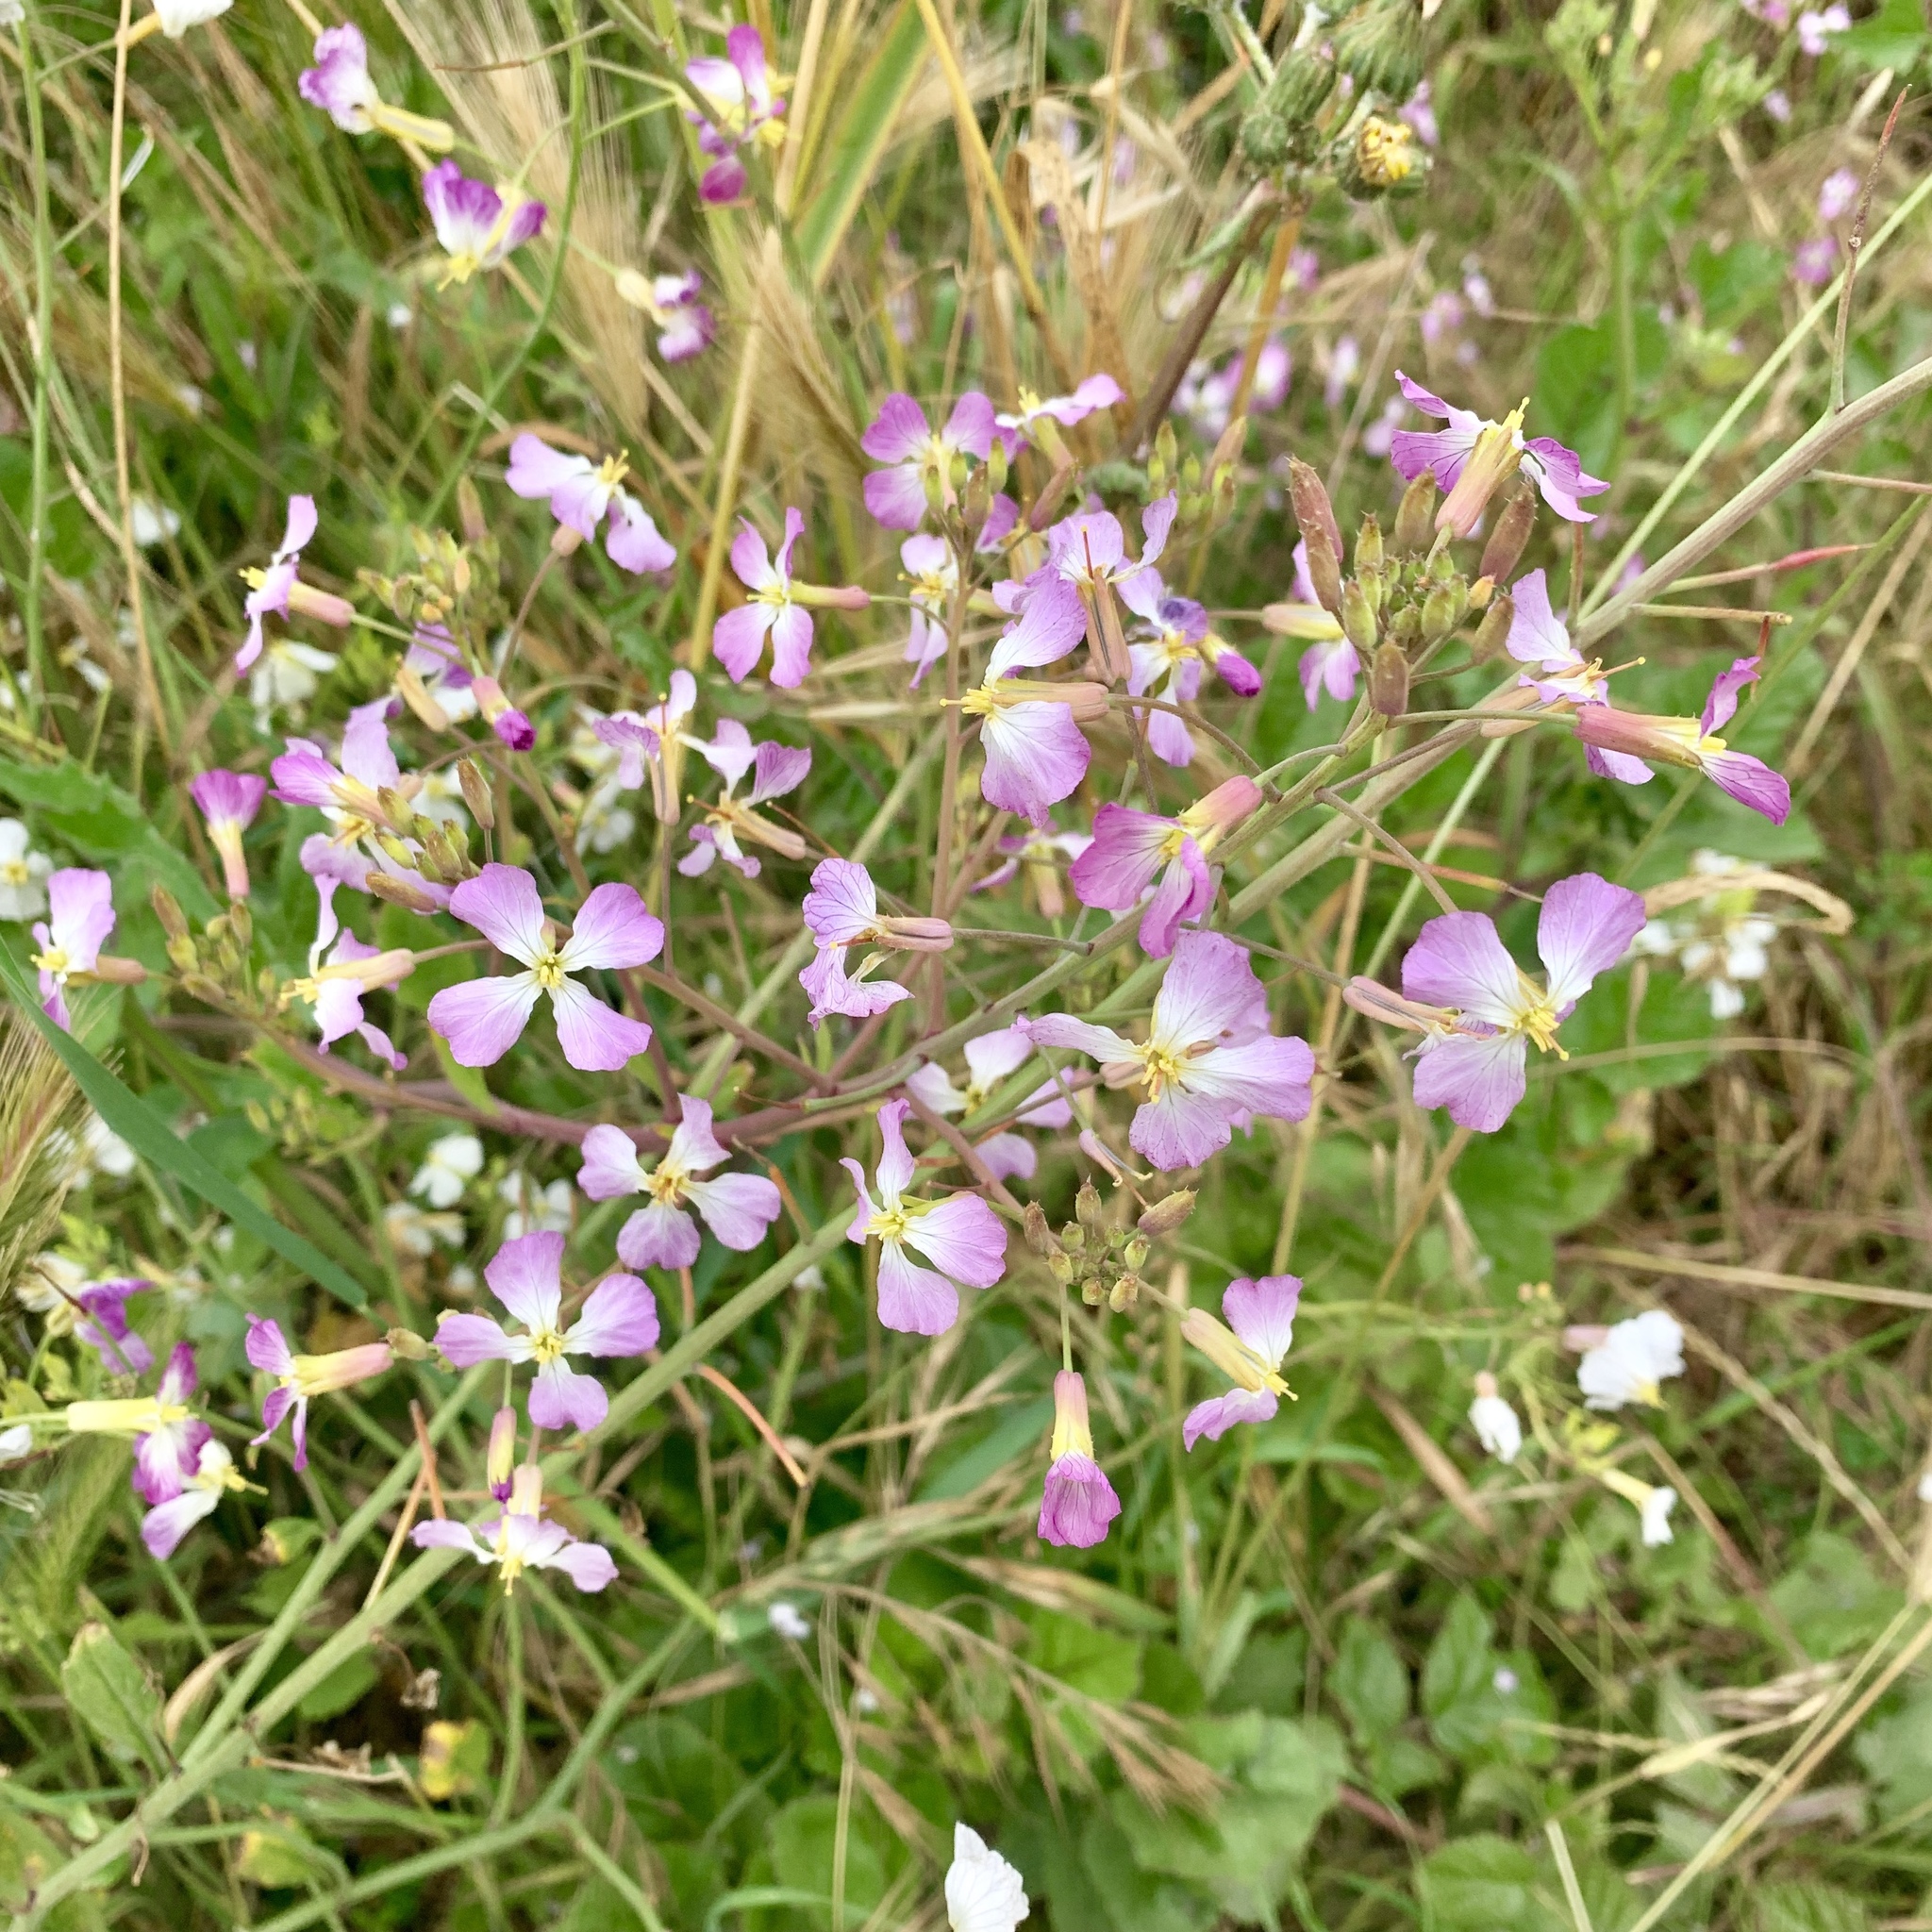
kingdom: Plantae
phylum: Tracheophyta
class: Magnoliopsida
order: Brassicales
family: Brassicaceae
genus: Raphanus
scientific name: Raphanus sativus
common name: Cultivated radish
